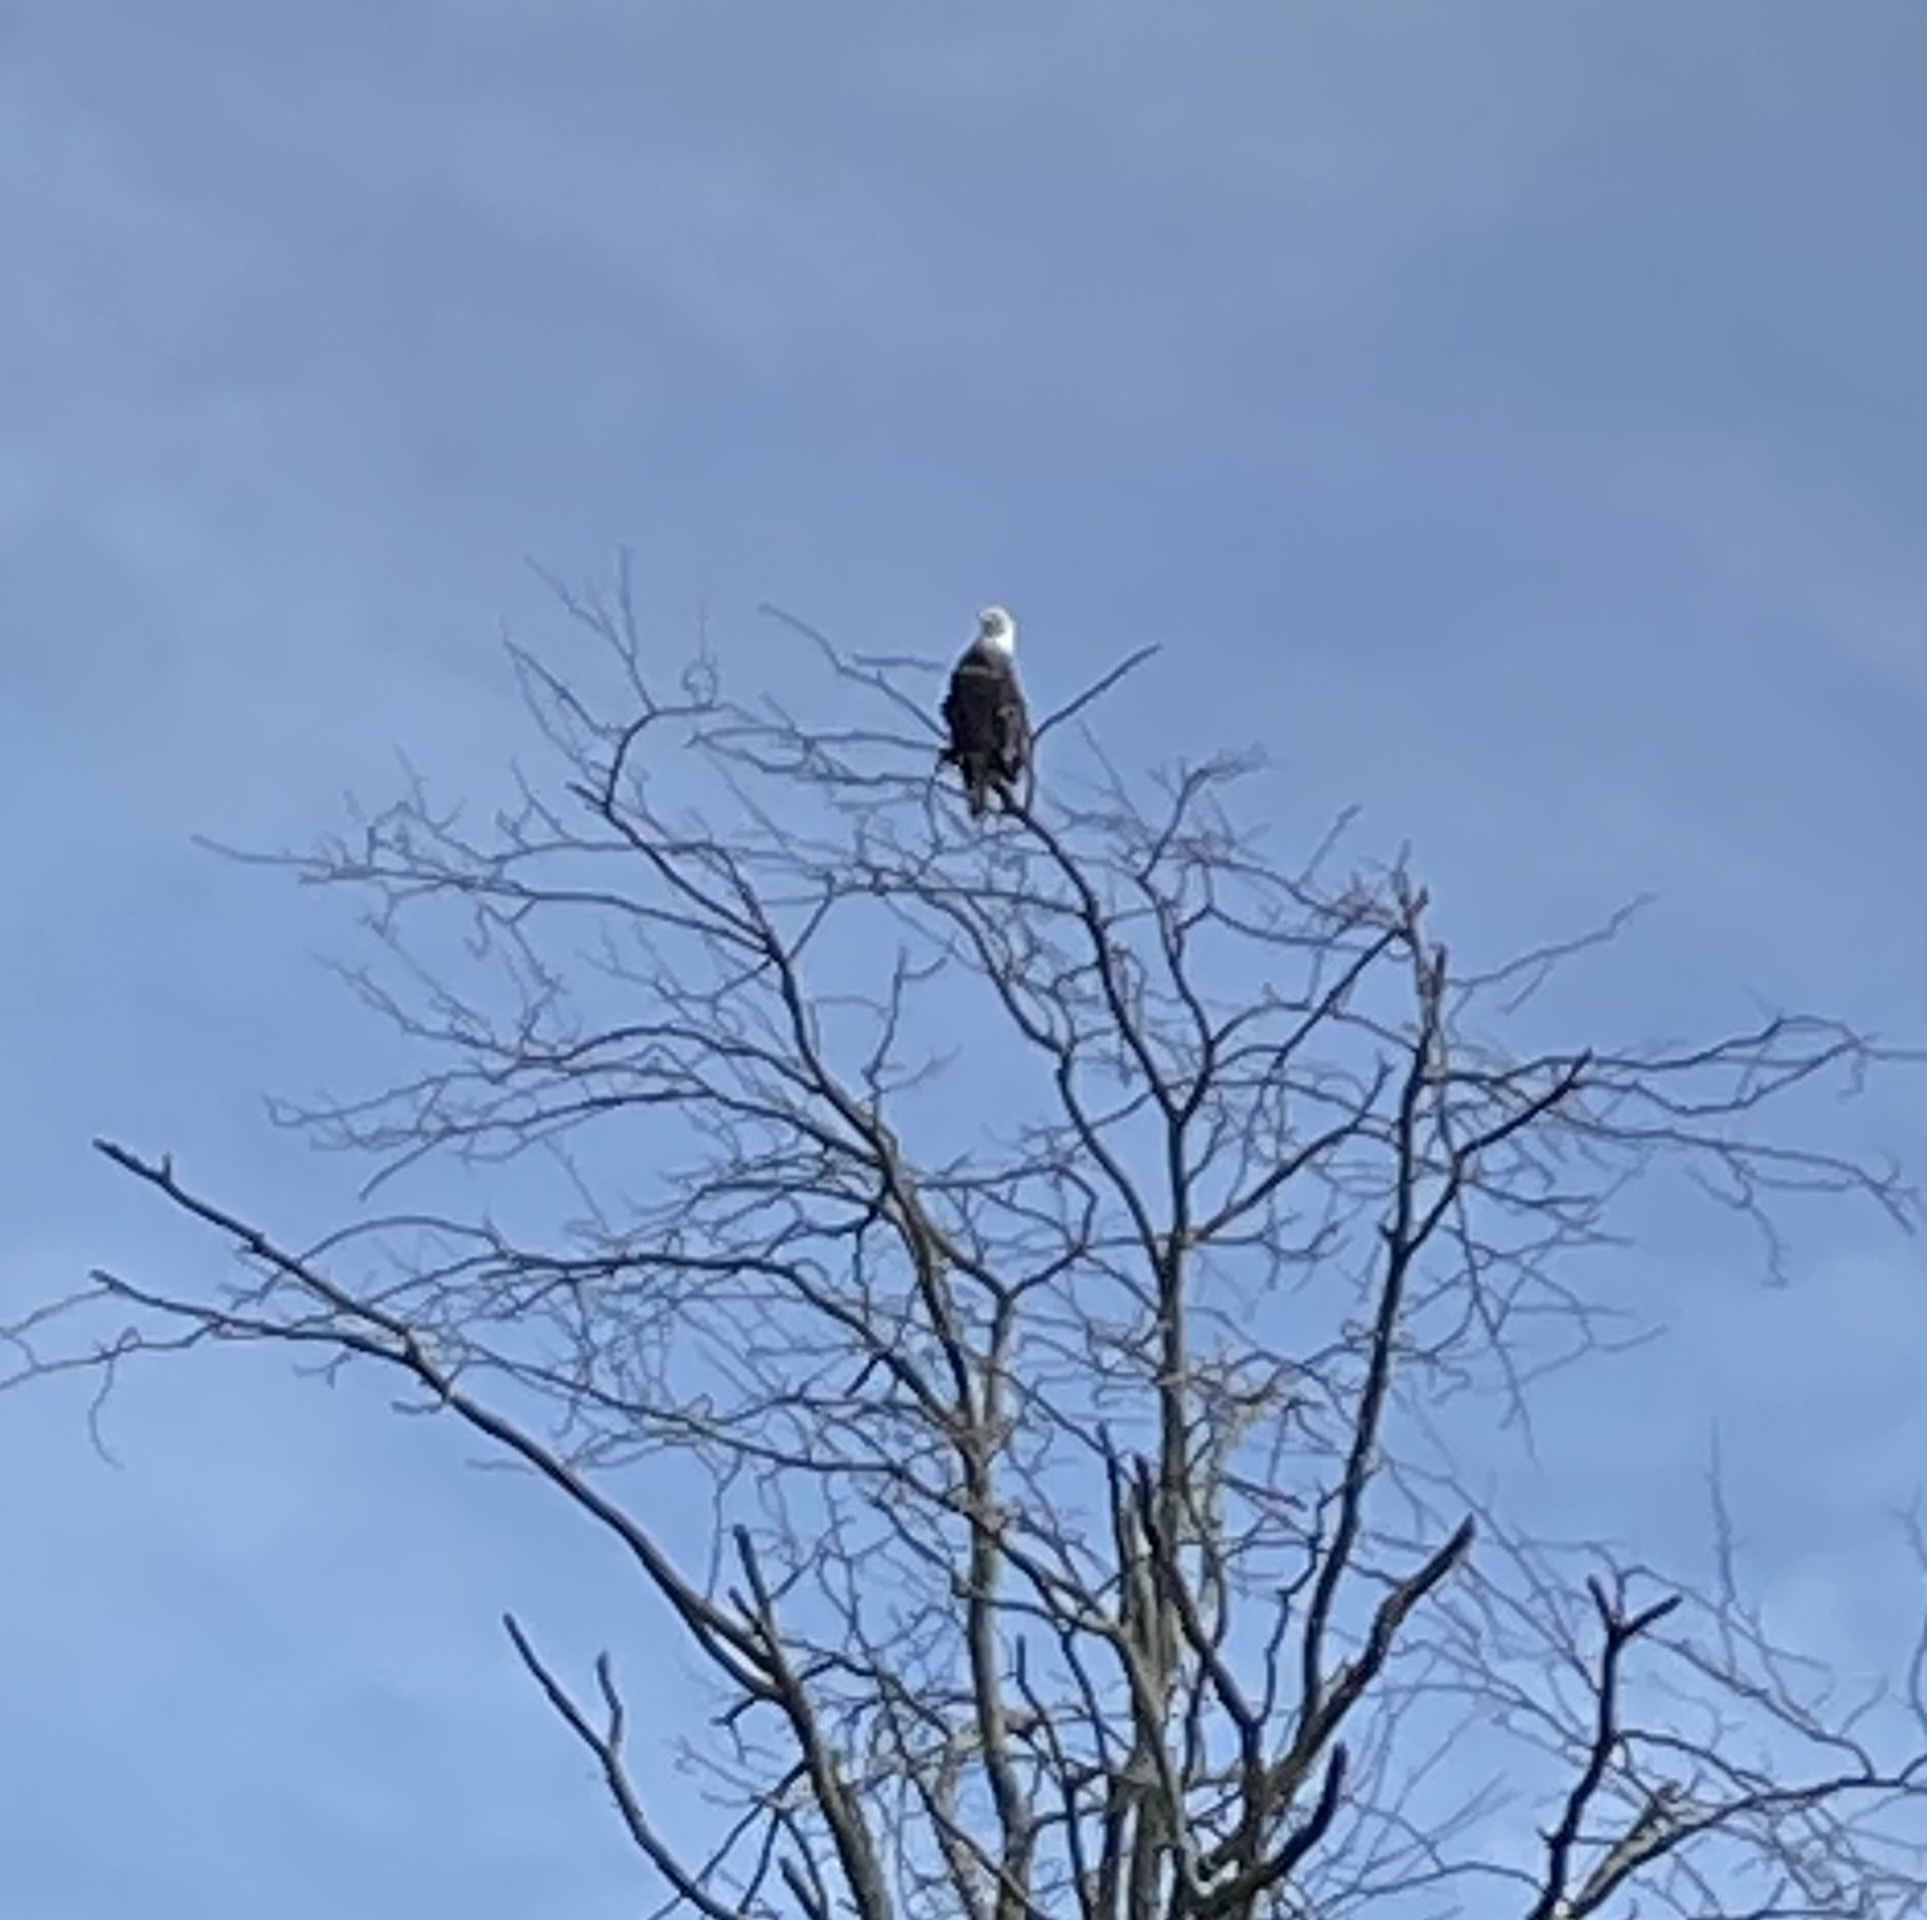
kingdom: Animalia
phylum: Chordata
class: Aves
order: Accipitriformes
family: Accipitridae
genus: Haliaeetus
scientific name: Haliaeetus leucocephalus
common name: Bald eagle
